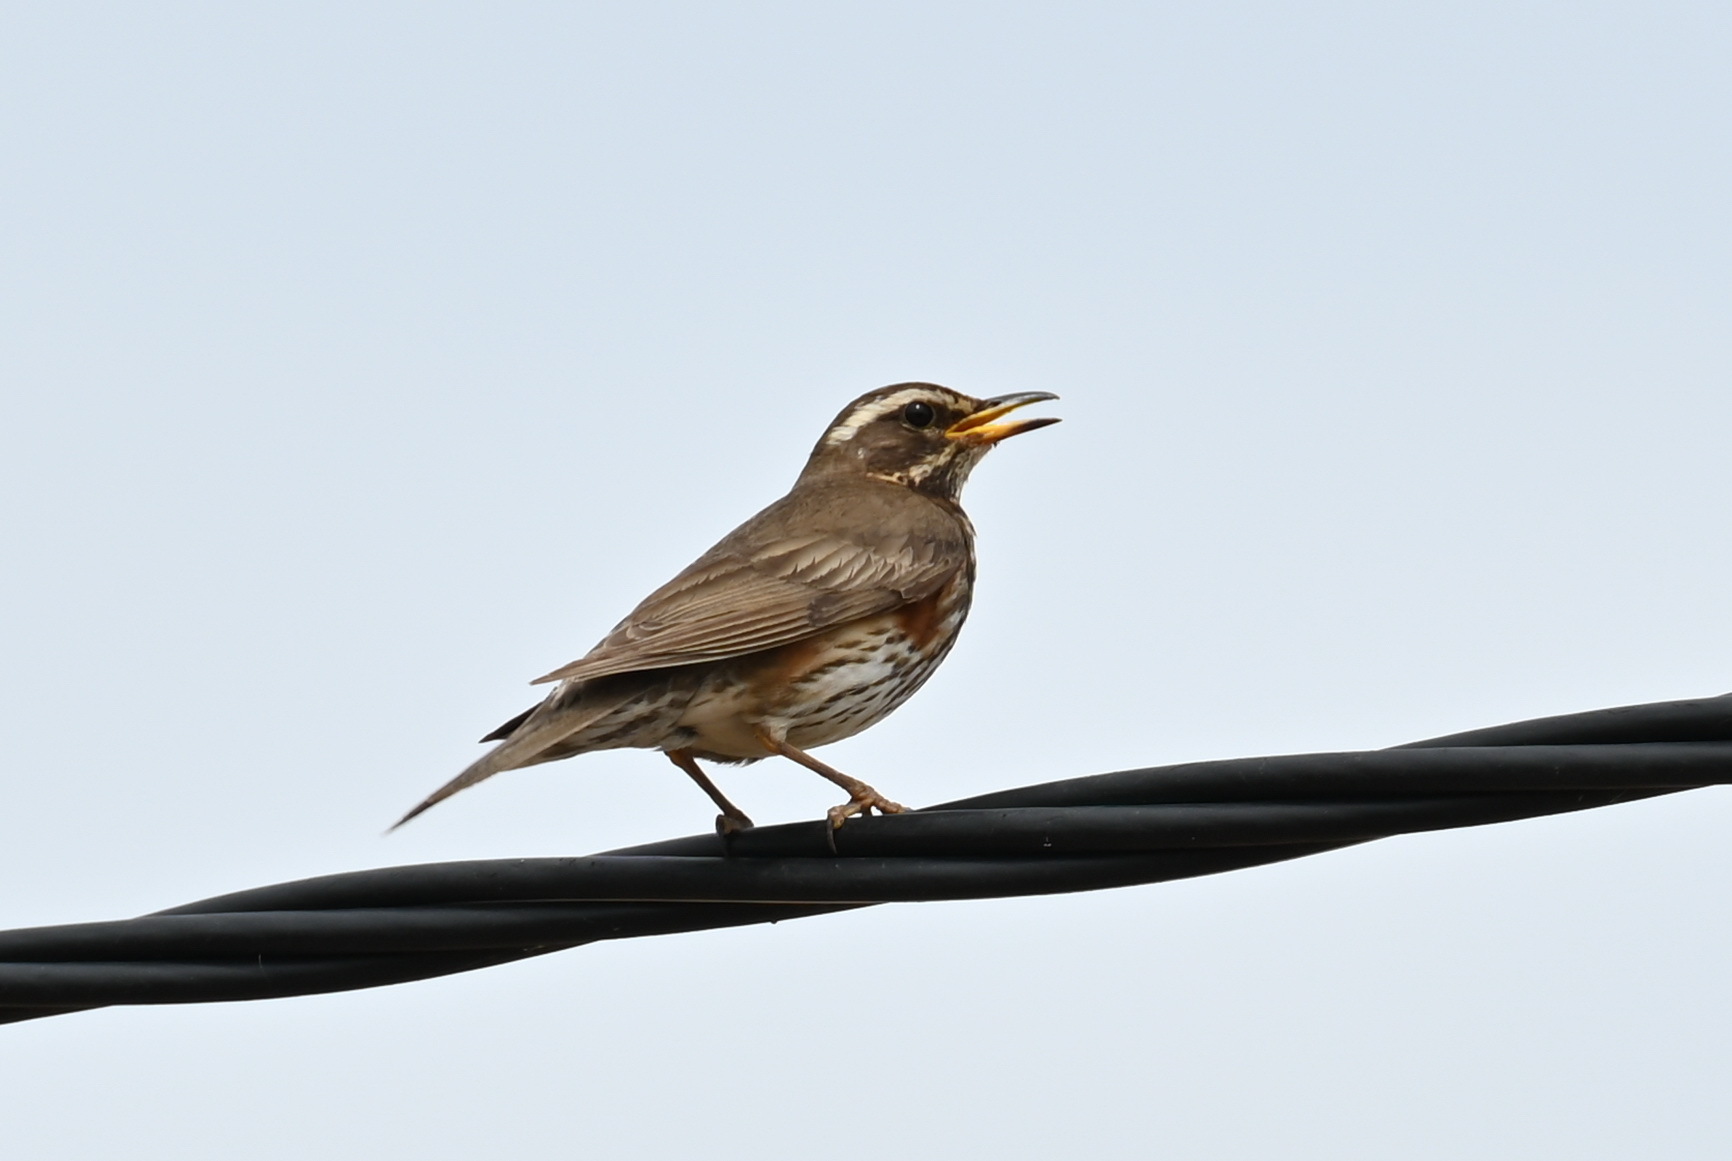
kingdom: Animalia
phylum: Chordata
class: Aves
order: Passeriformes
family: Turdidae
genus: Turdus
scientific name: Turdus iliacus
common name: Redwing
